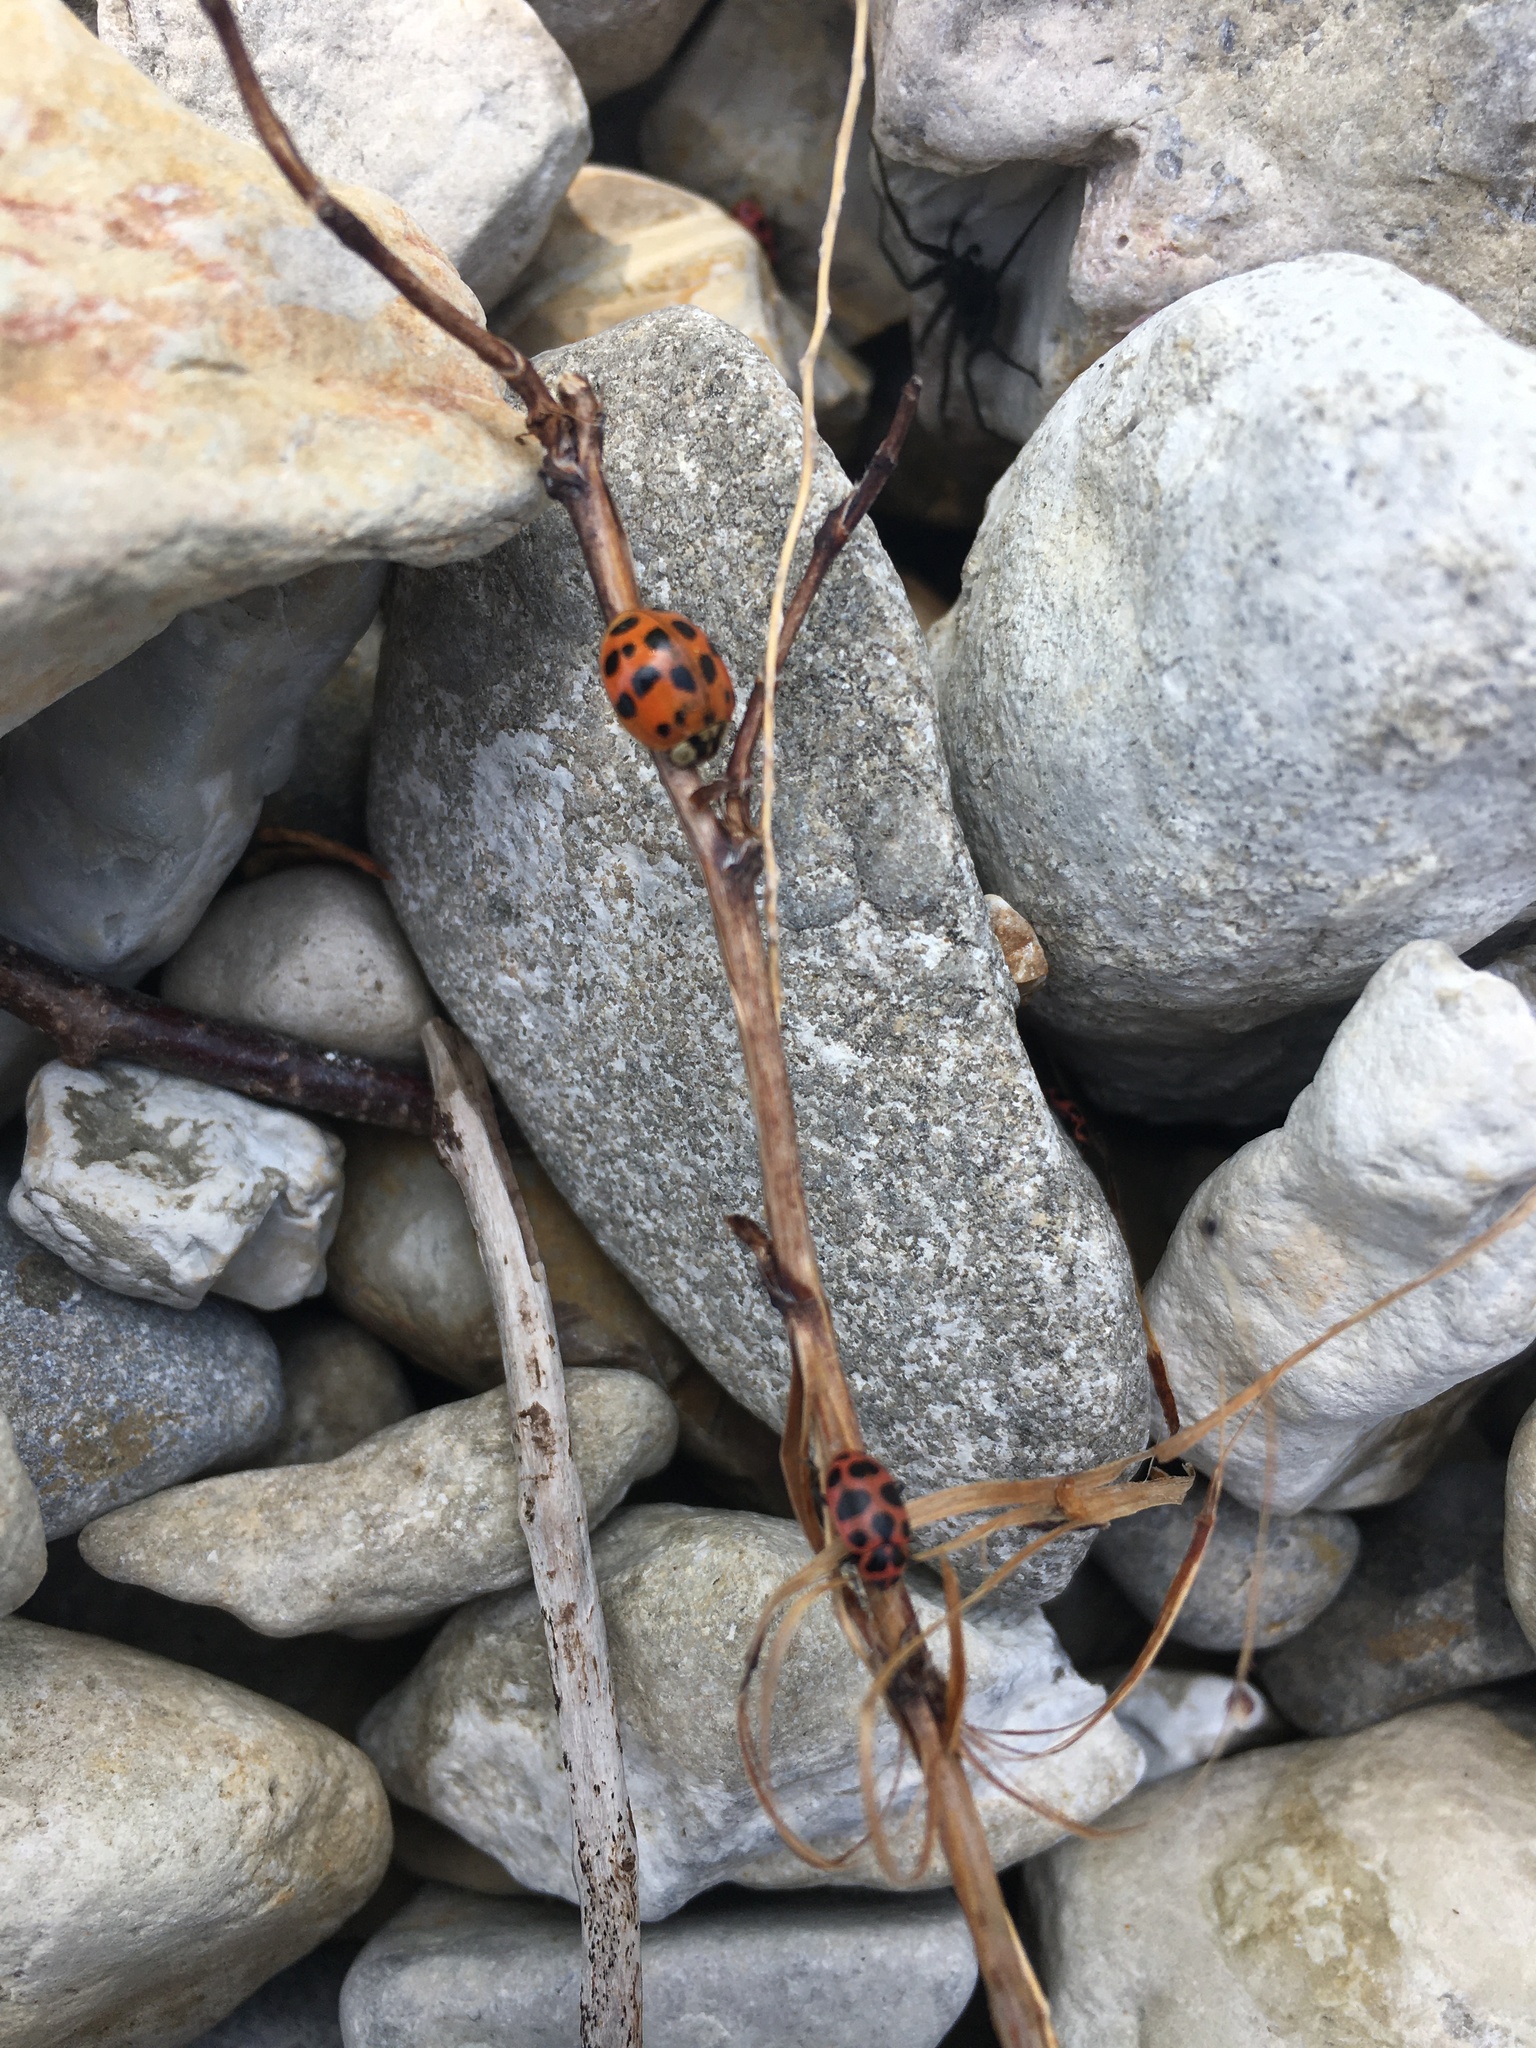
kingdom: Animalia
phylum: Arthropoda
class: Insecta
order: Coleoptera
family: Coccinellidae
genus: Harmonia
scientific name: Harmonia axyridis
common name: Harlequin ladybird
